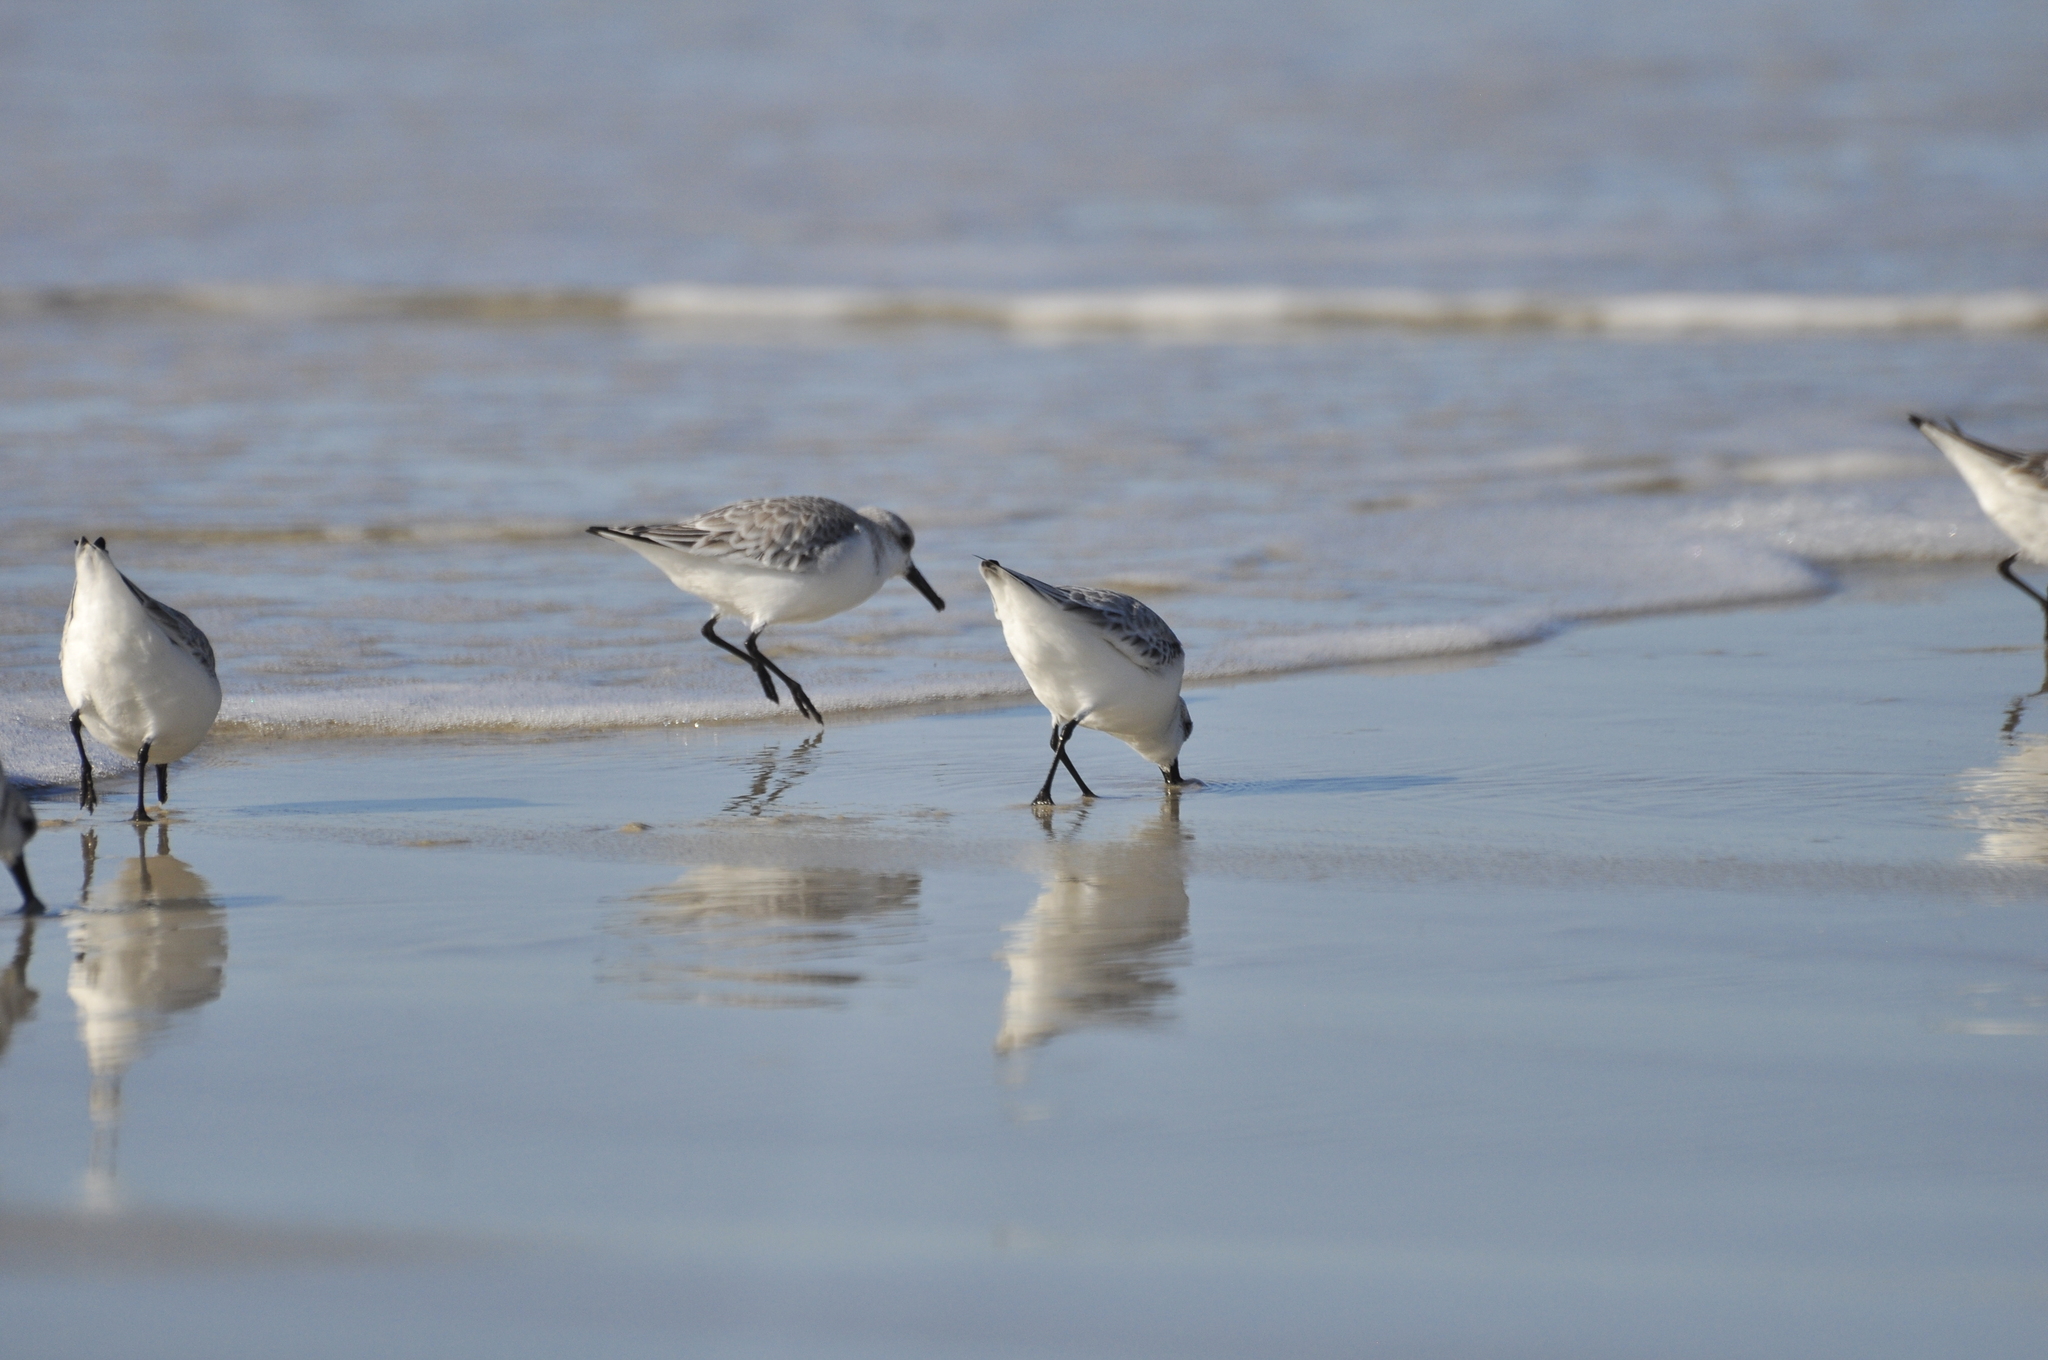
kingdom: Animalia
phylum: Chordata
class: Aves
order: Charadriiformes
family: Scolopacidae
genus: Calidris
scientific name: Calidris alba
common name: Sanderling
